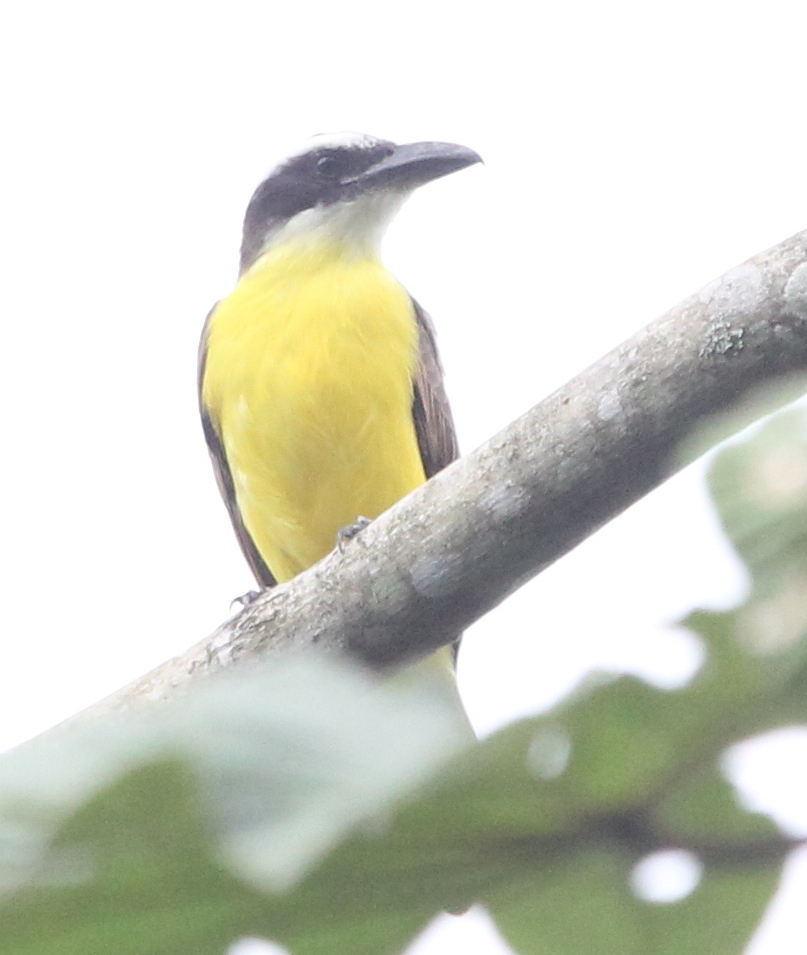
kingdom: Animalia
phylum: Chordata
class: Aves
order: Passeriformes
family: Tyrannidae
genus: Megarynchus
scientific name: Megarynchus pitangua
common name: Boat-billed flycatcher
